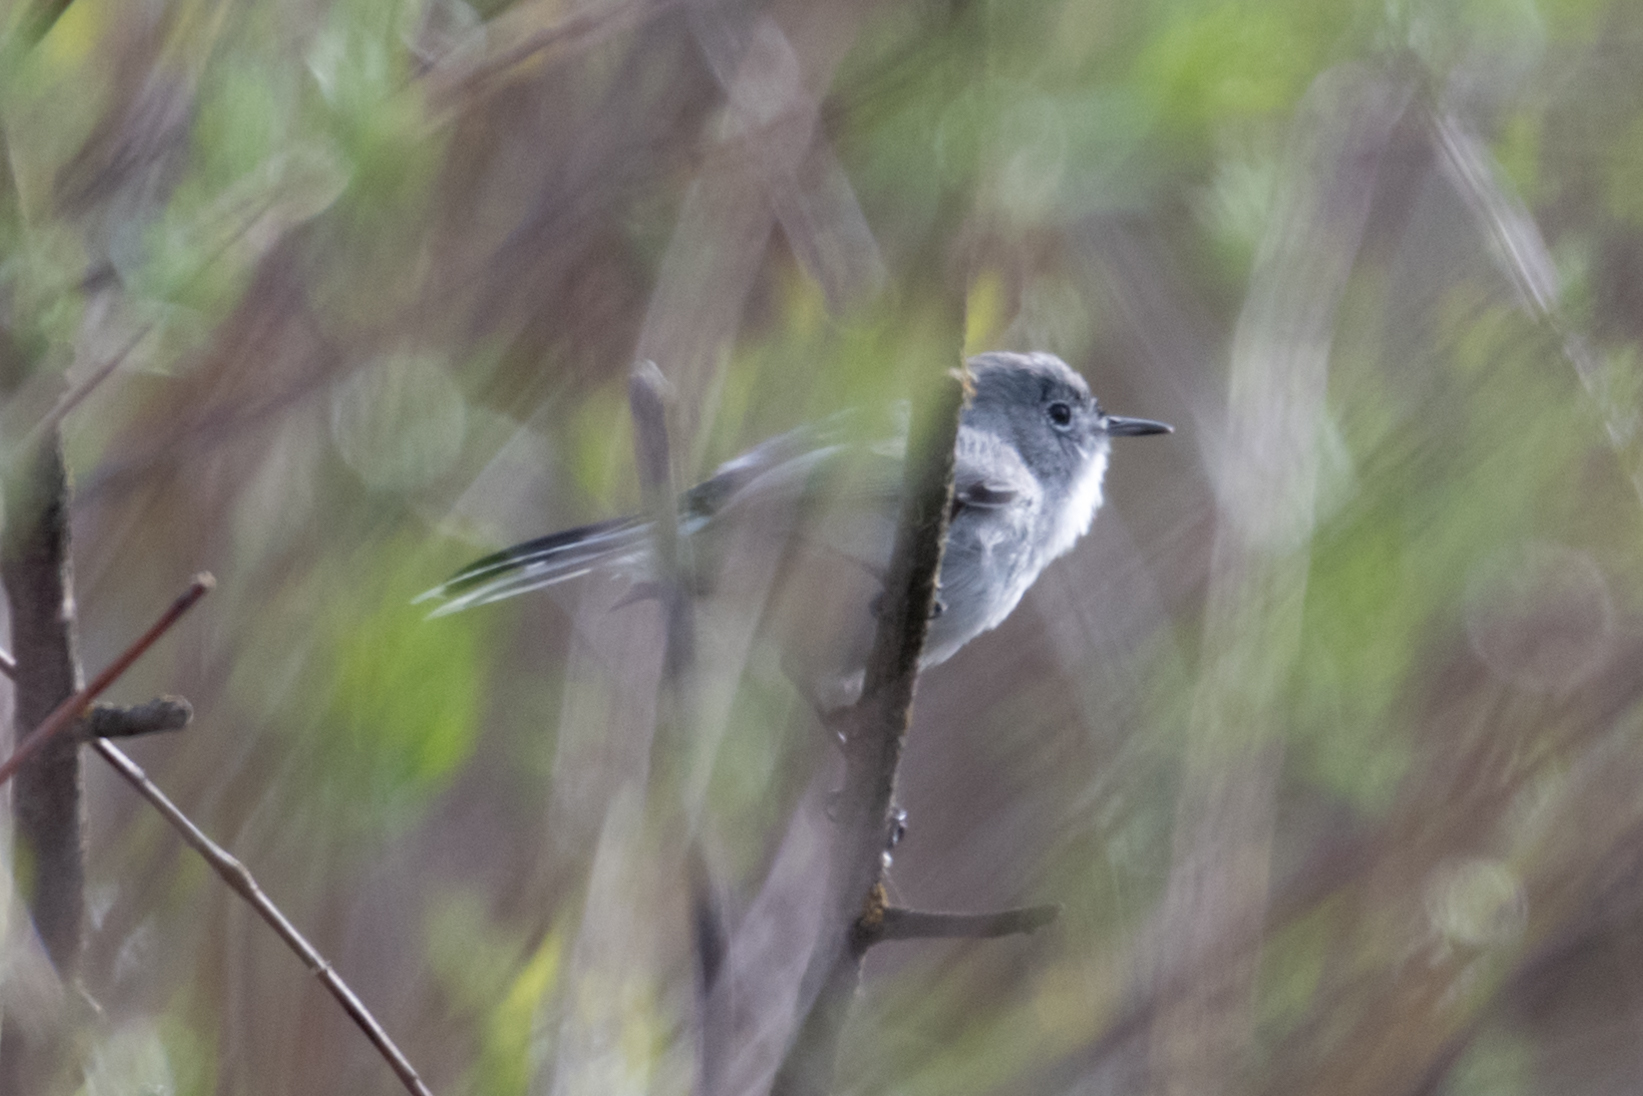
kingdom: Animalia
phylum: Chordata
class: Aves
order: Passeriformes
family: Polioptilidae
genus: Polioptila
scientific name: Polioptila caerulea
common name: Blue-gray gnatcatcher
